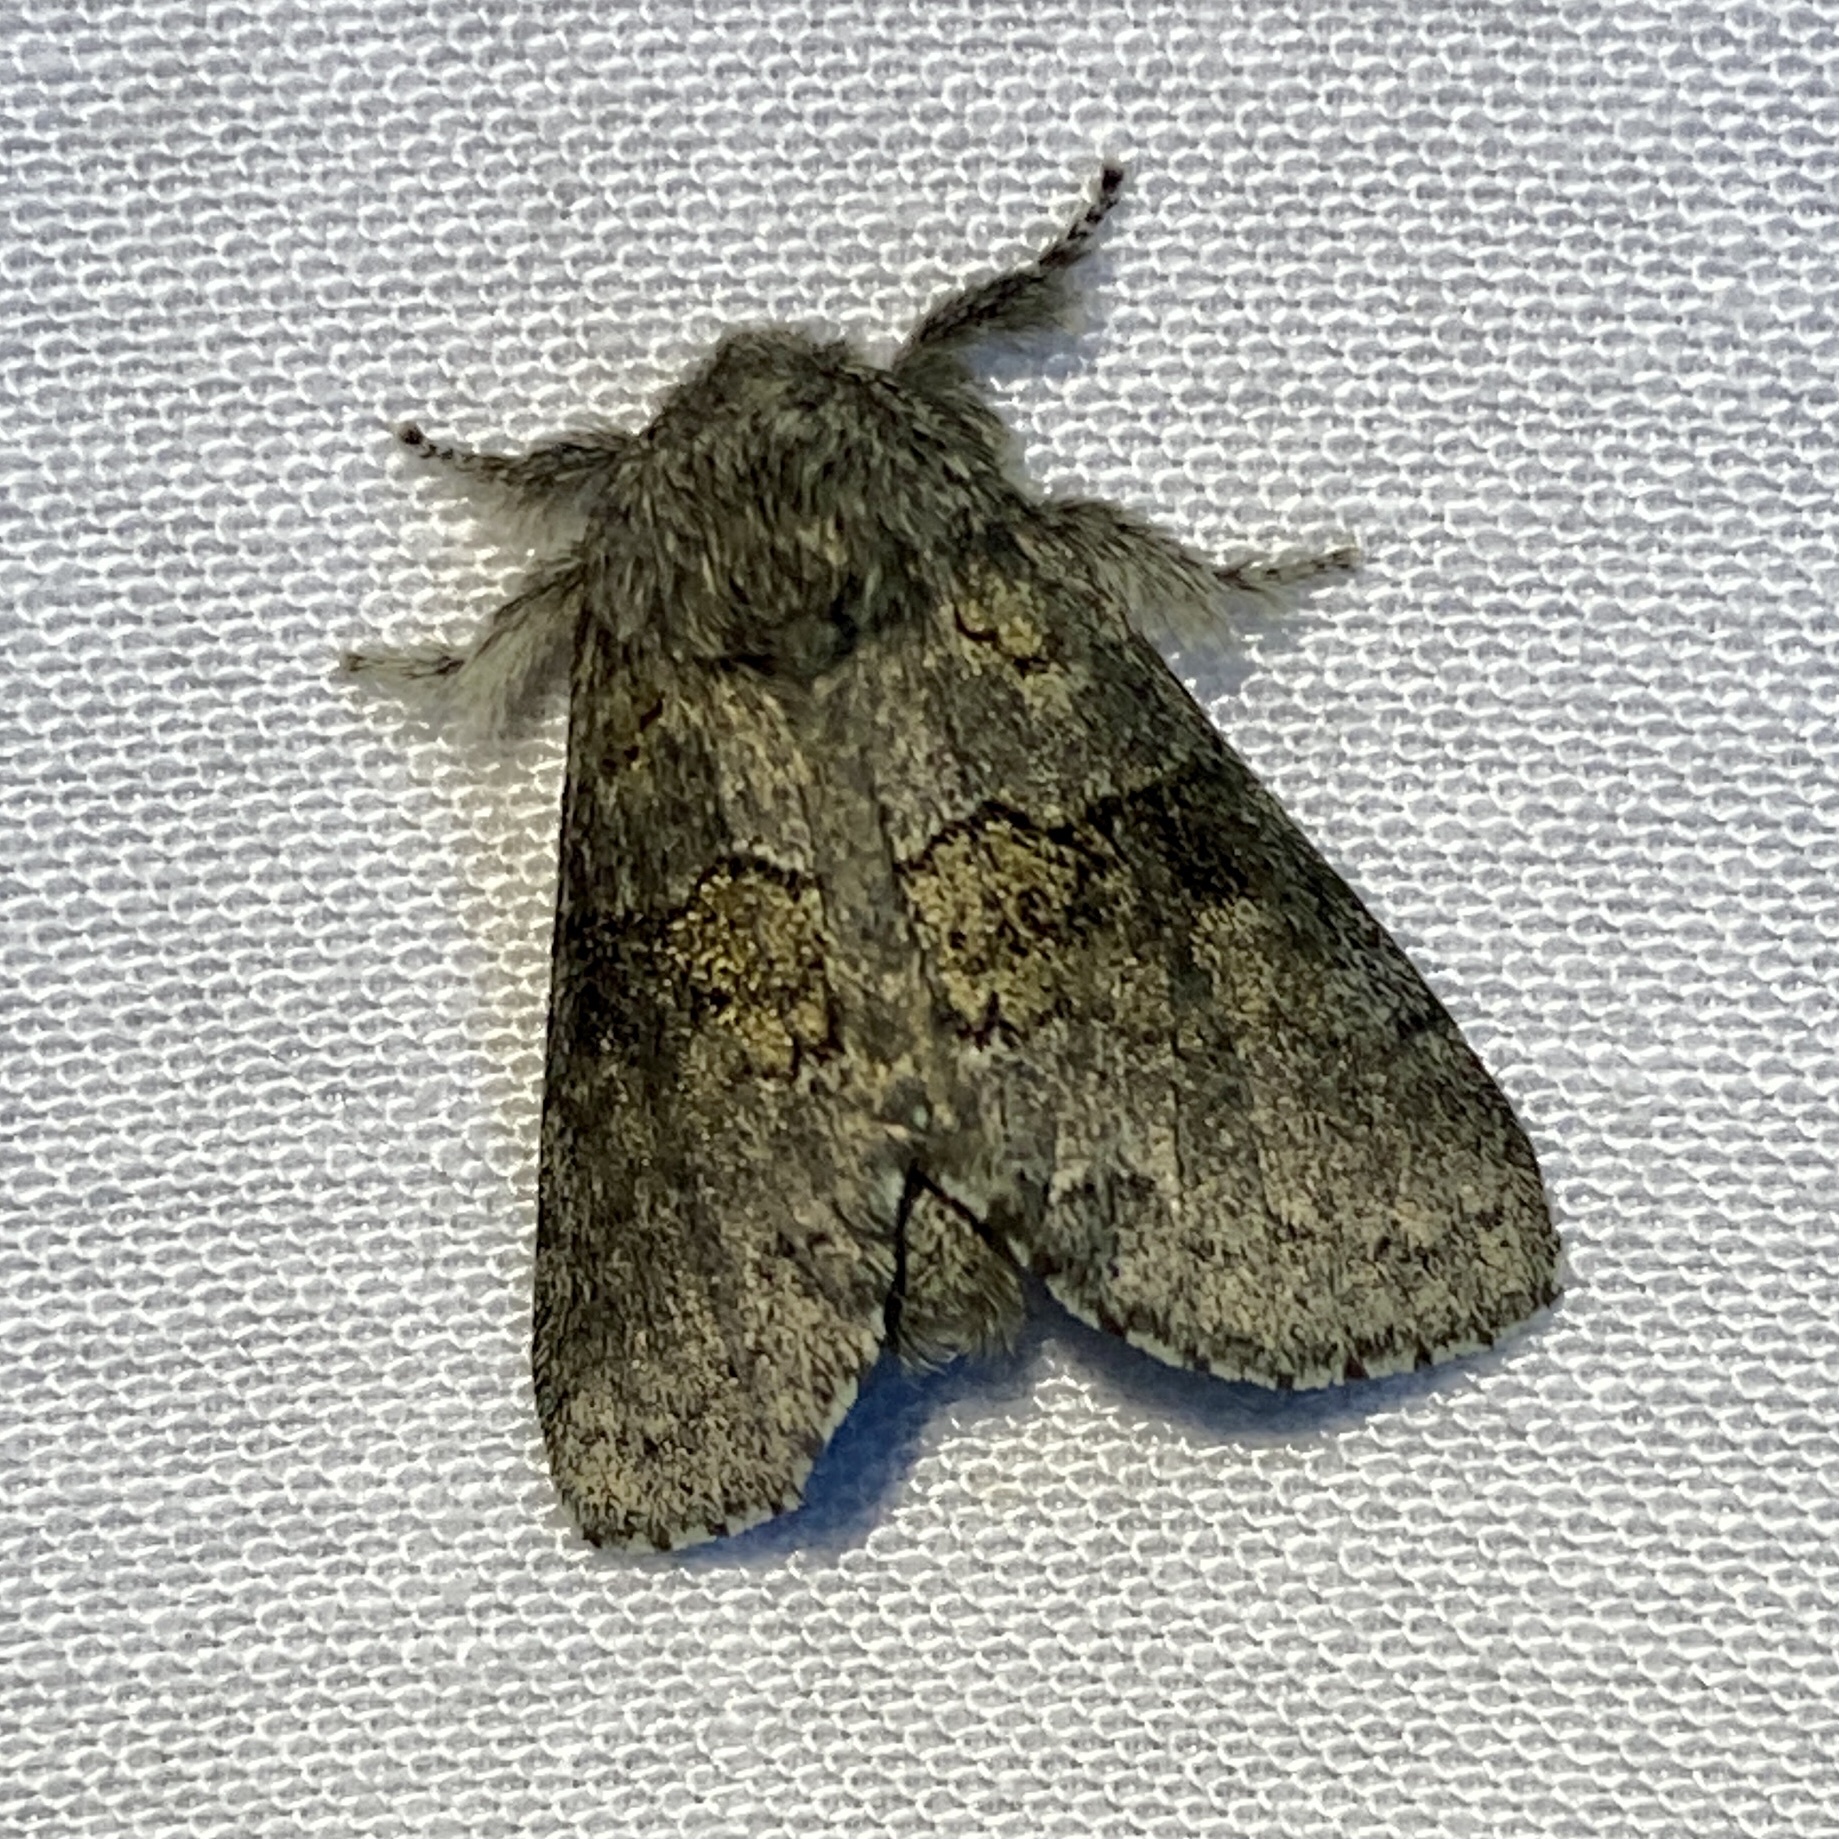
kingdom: Animalia
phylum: Arthropoda
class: Insecta
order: Lepidoptera
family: Notodontidae
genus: Gluphisia
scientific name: Gluphisia septentrionis
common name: Common gluphisia
